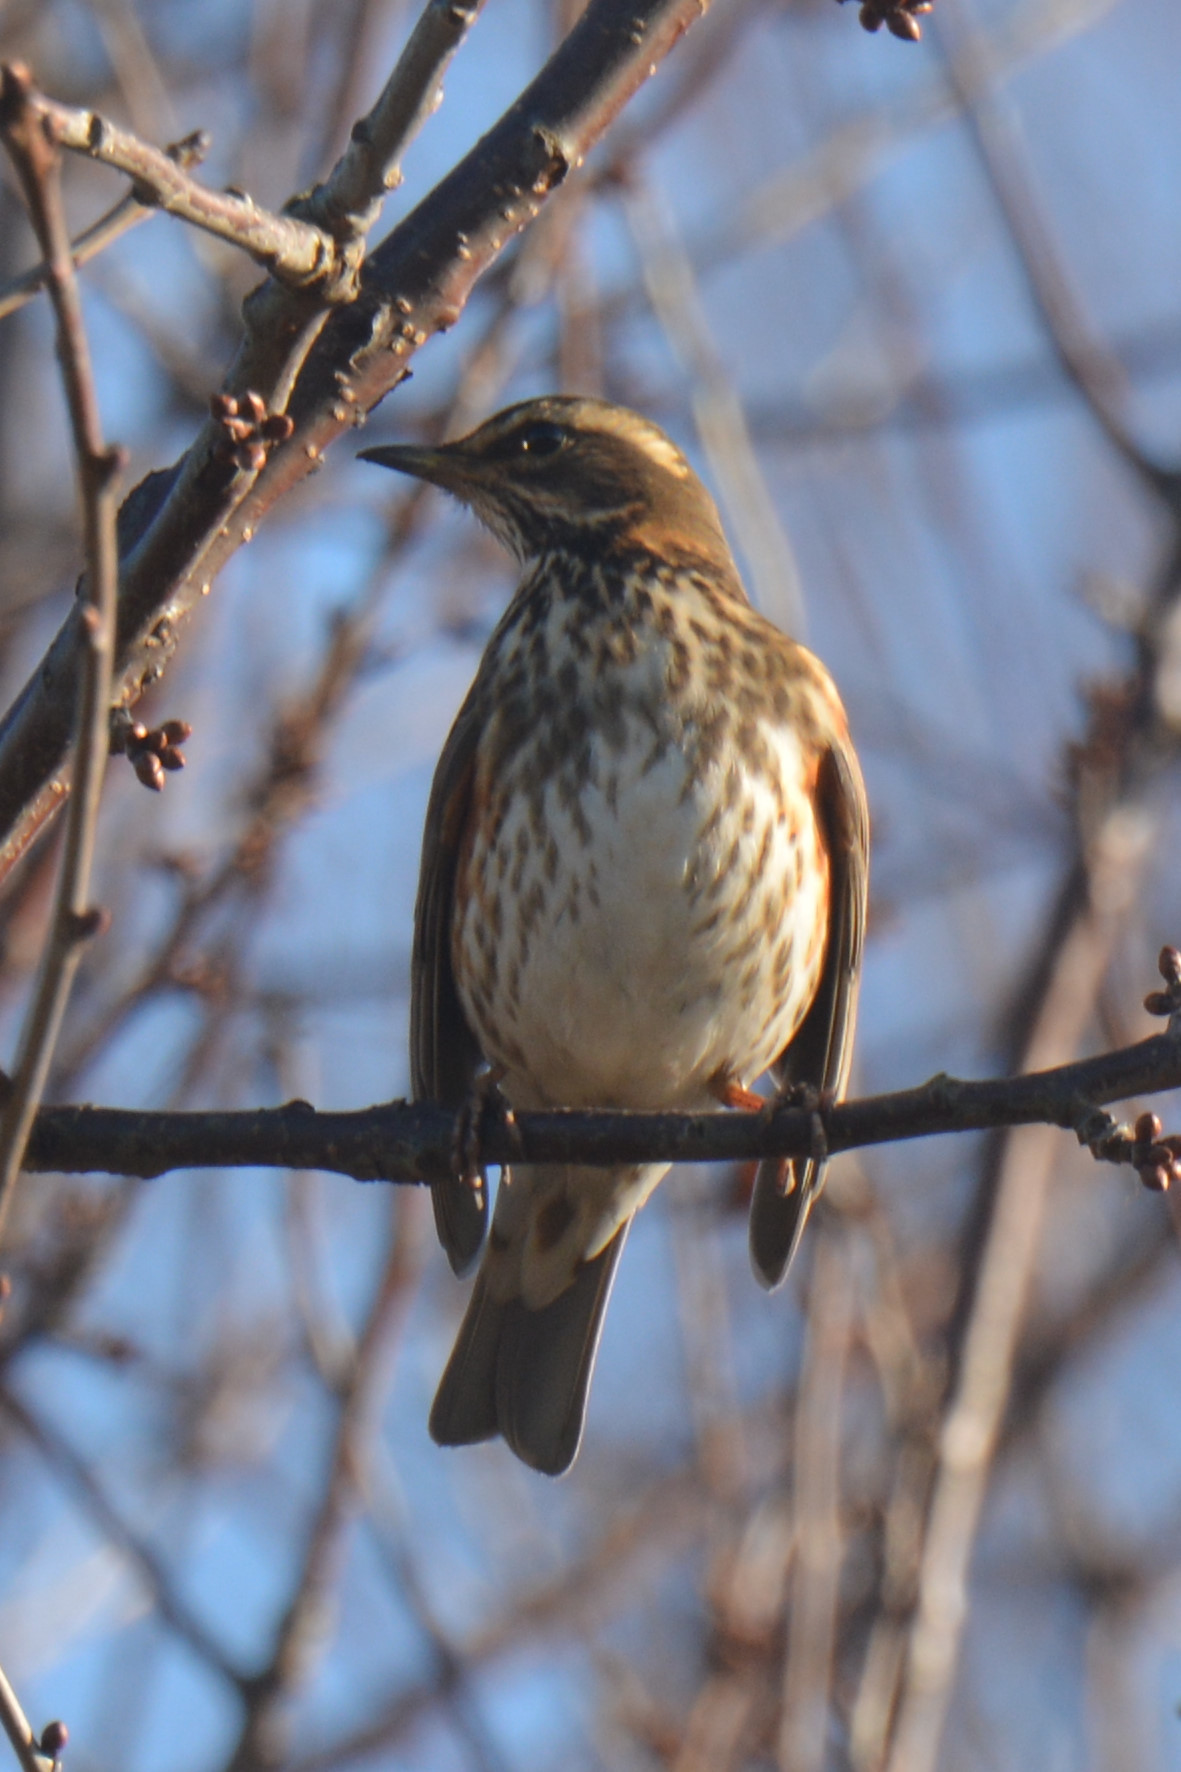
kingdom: Animalia
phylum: Chordata
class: Aves
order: Passeriformes
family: Turdidae
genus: Turdus
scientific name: Turdus iliacus
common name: Redwing
